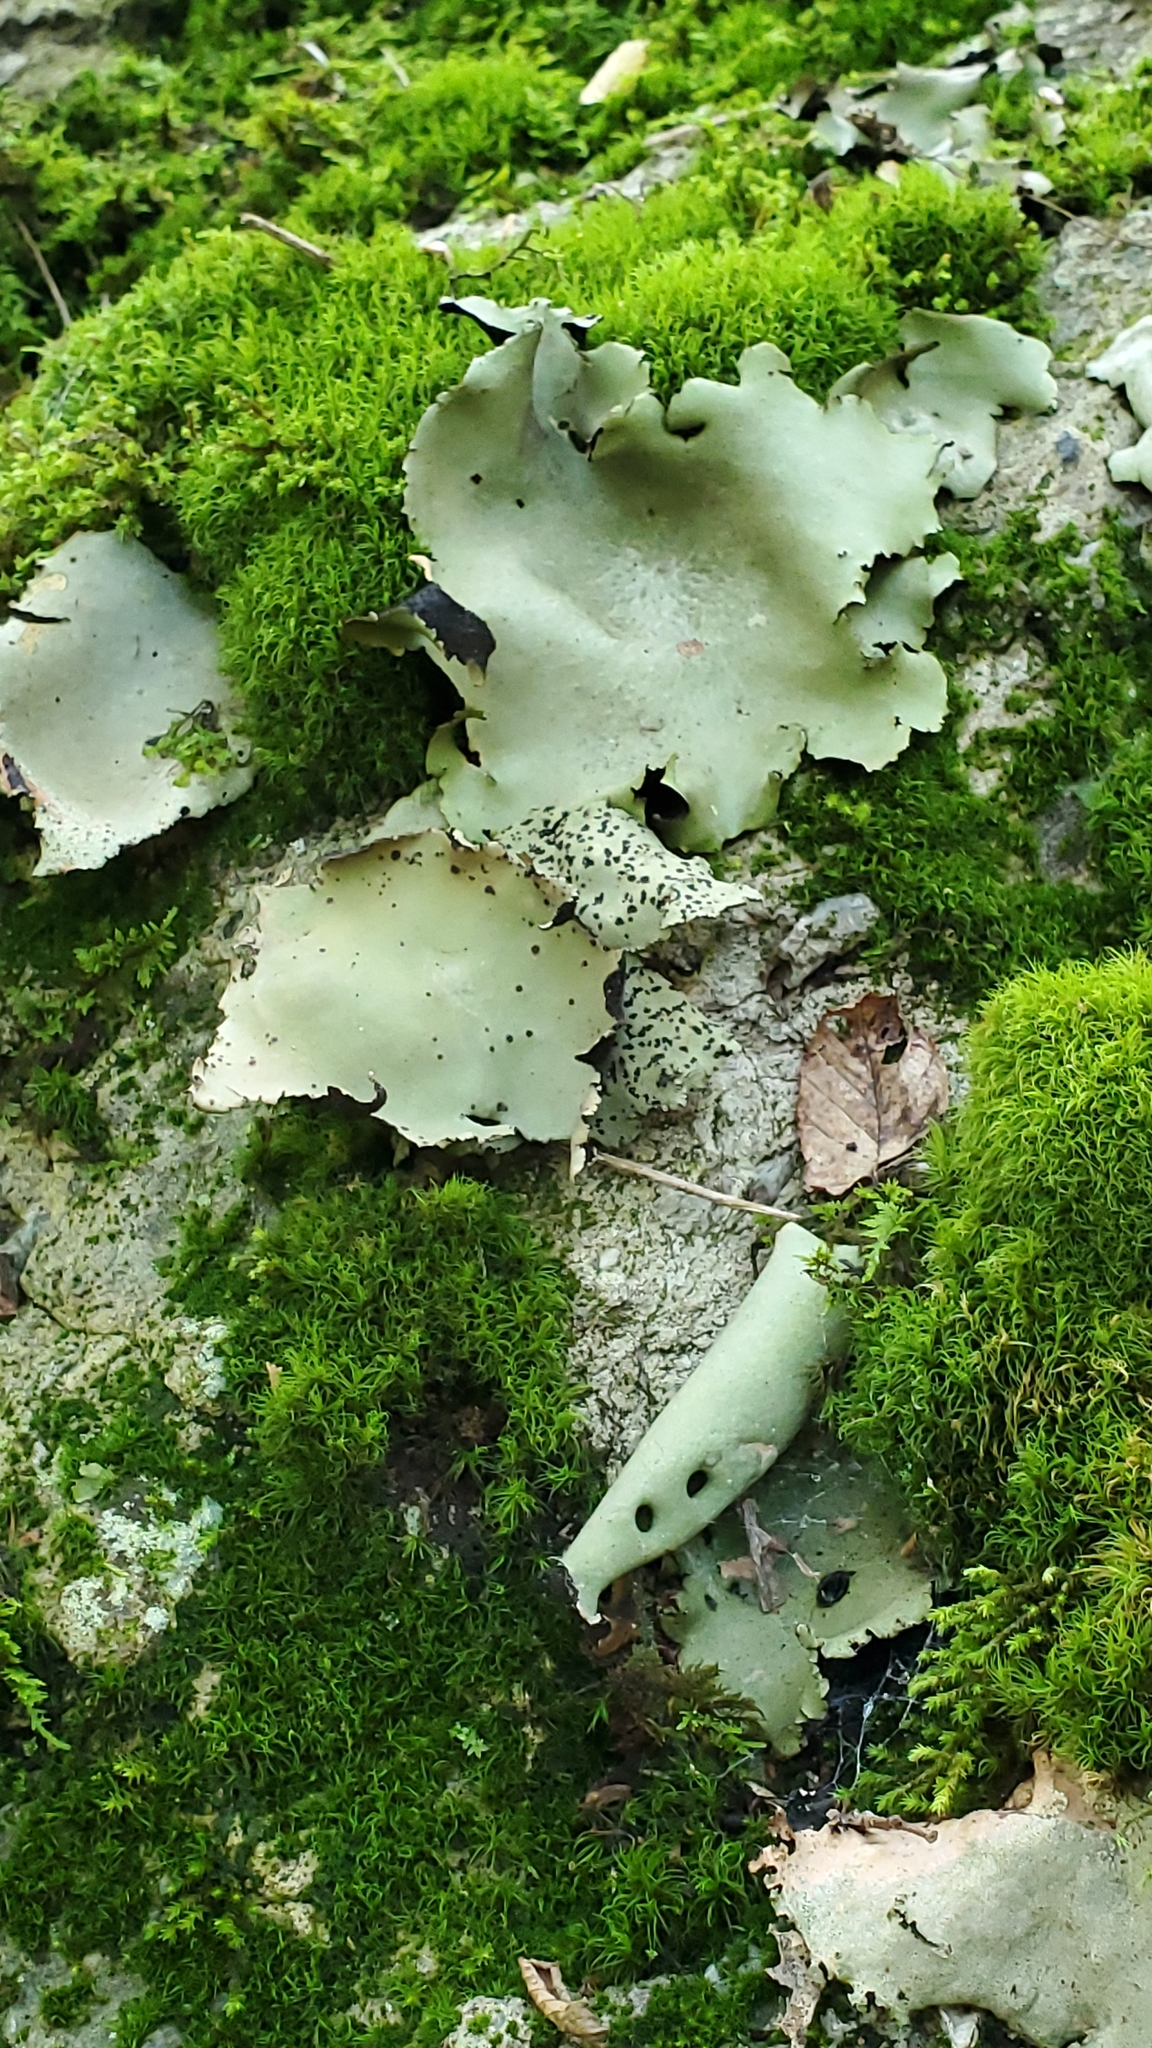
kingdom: Fungi
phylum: Ascomycota
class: Lecanoromycetes
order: Umbilicariales
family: Umbilicariaceae
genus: Umbilicaria
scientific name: Umbilicaria americana
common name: Frosted rock tripe
